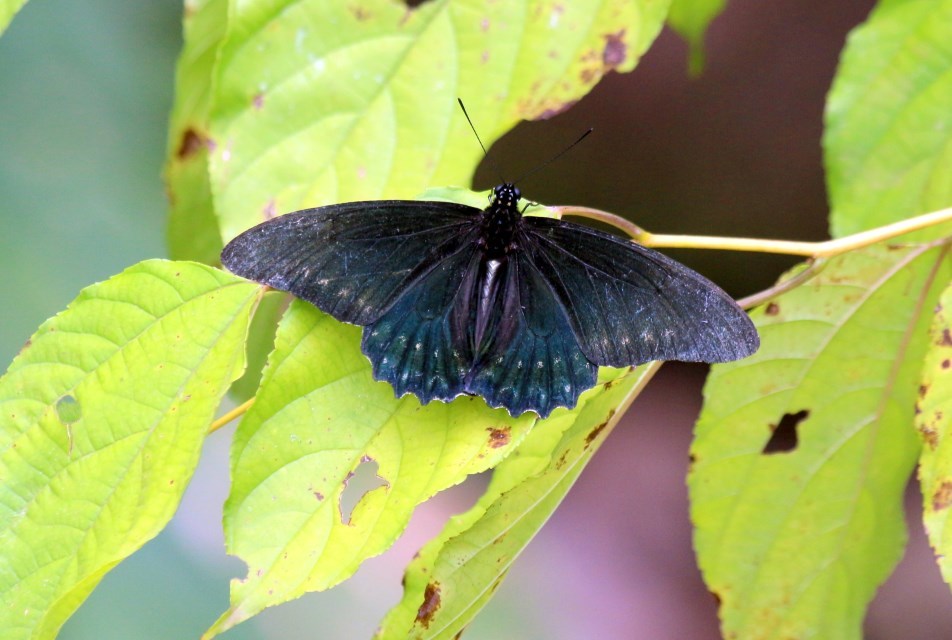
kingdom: Animalia
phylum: Arthropoda
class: Insecta
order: Lepidoptera
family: Papilionidae
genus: Battus
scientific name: Battus polystictus
